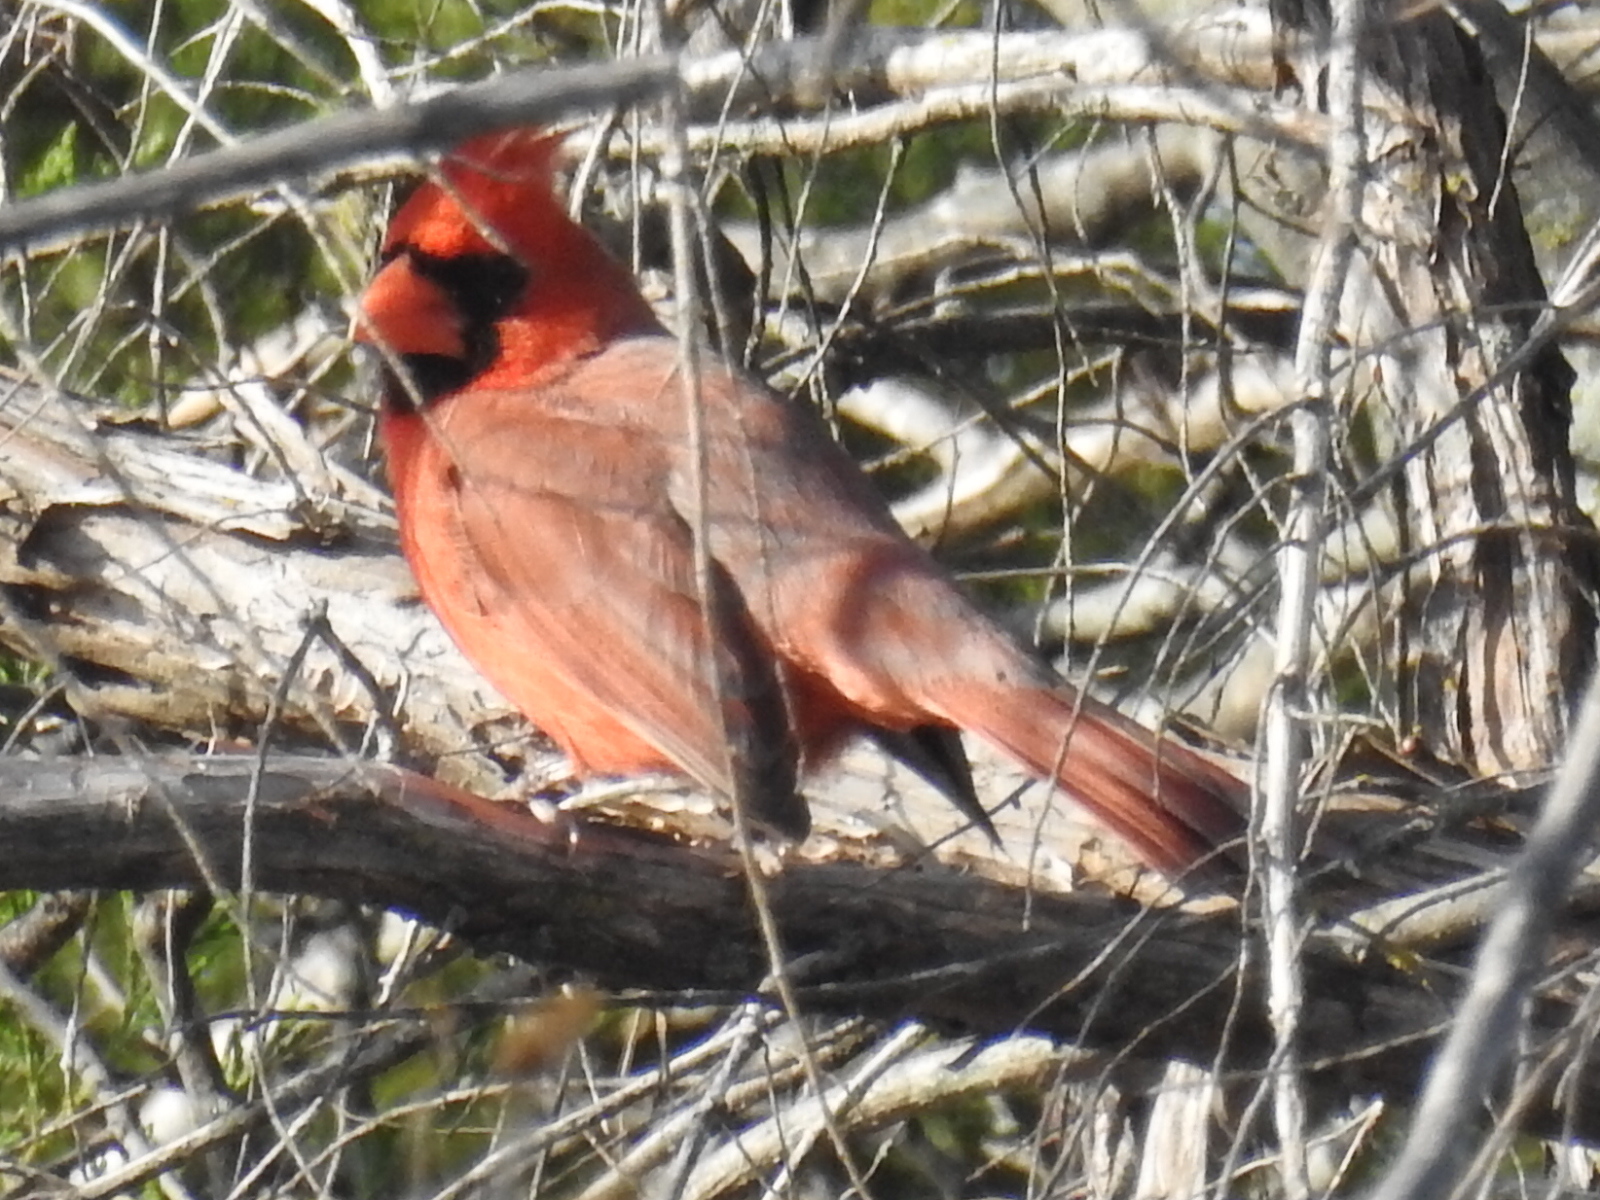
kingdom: Animalia
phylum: Chordata
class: Aves
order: Passeriformes
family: Cardinalidae
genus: Cardinalis
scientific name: Cardinalis cardinalis
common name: Northern cardinal
